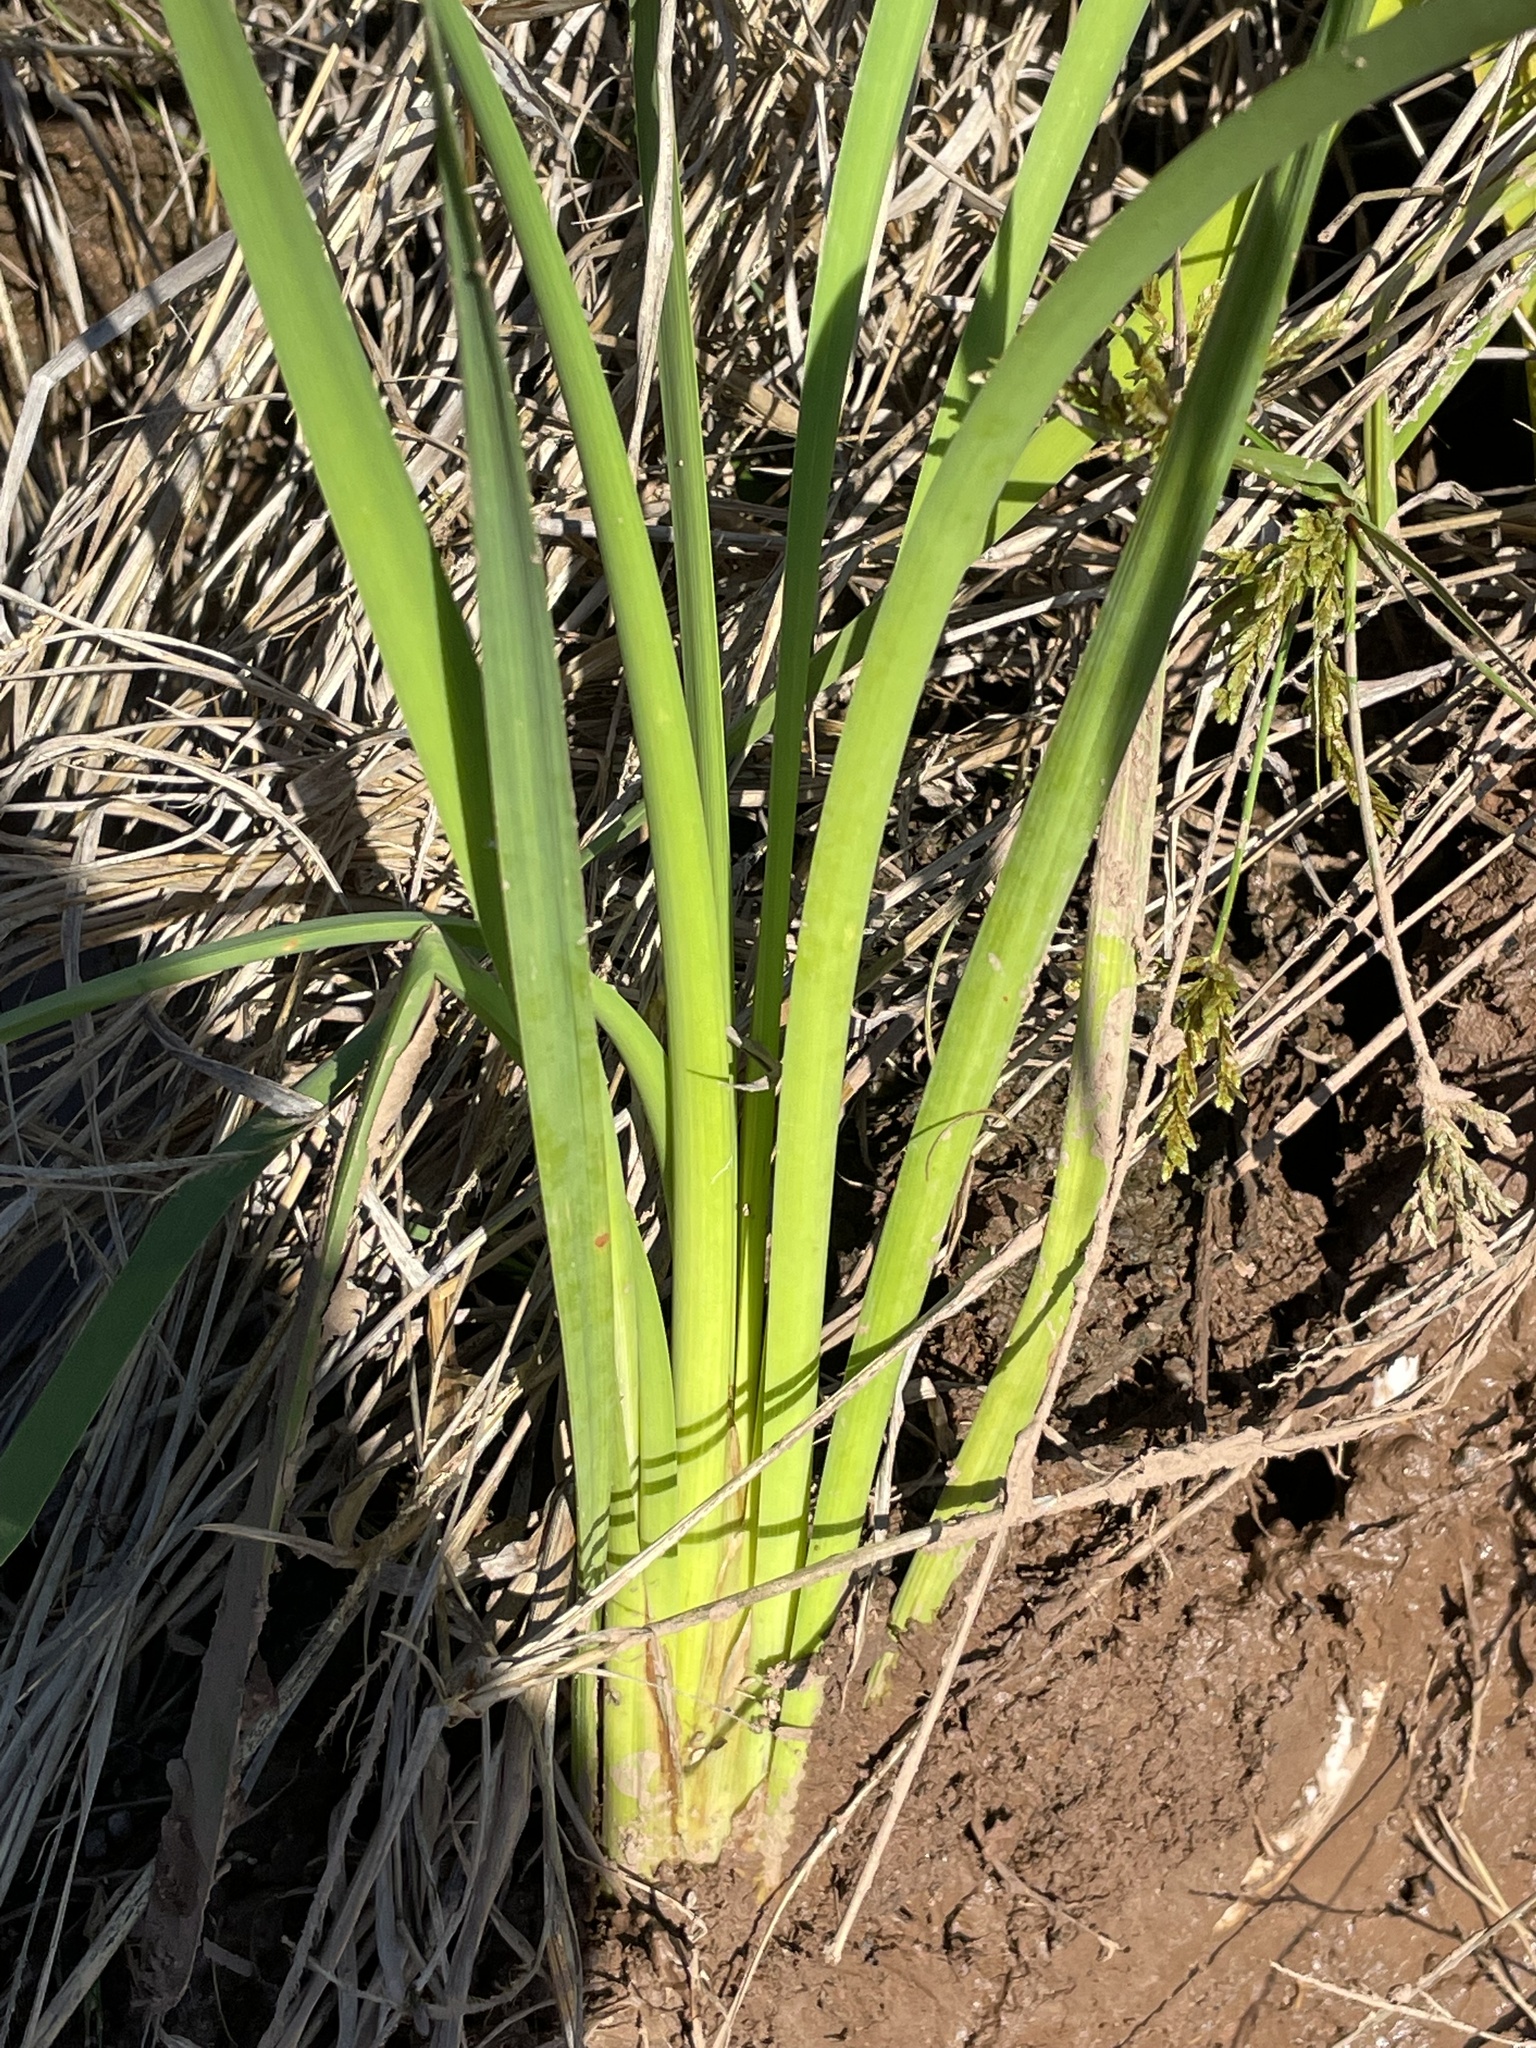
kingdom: Plantae
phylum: Tracheophyta
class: Liliopsida
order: Poales
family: Typhaceae
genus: Typha
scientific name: Typha latifolia
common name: Broadleaf cattail
